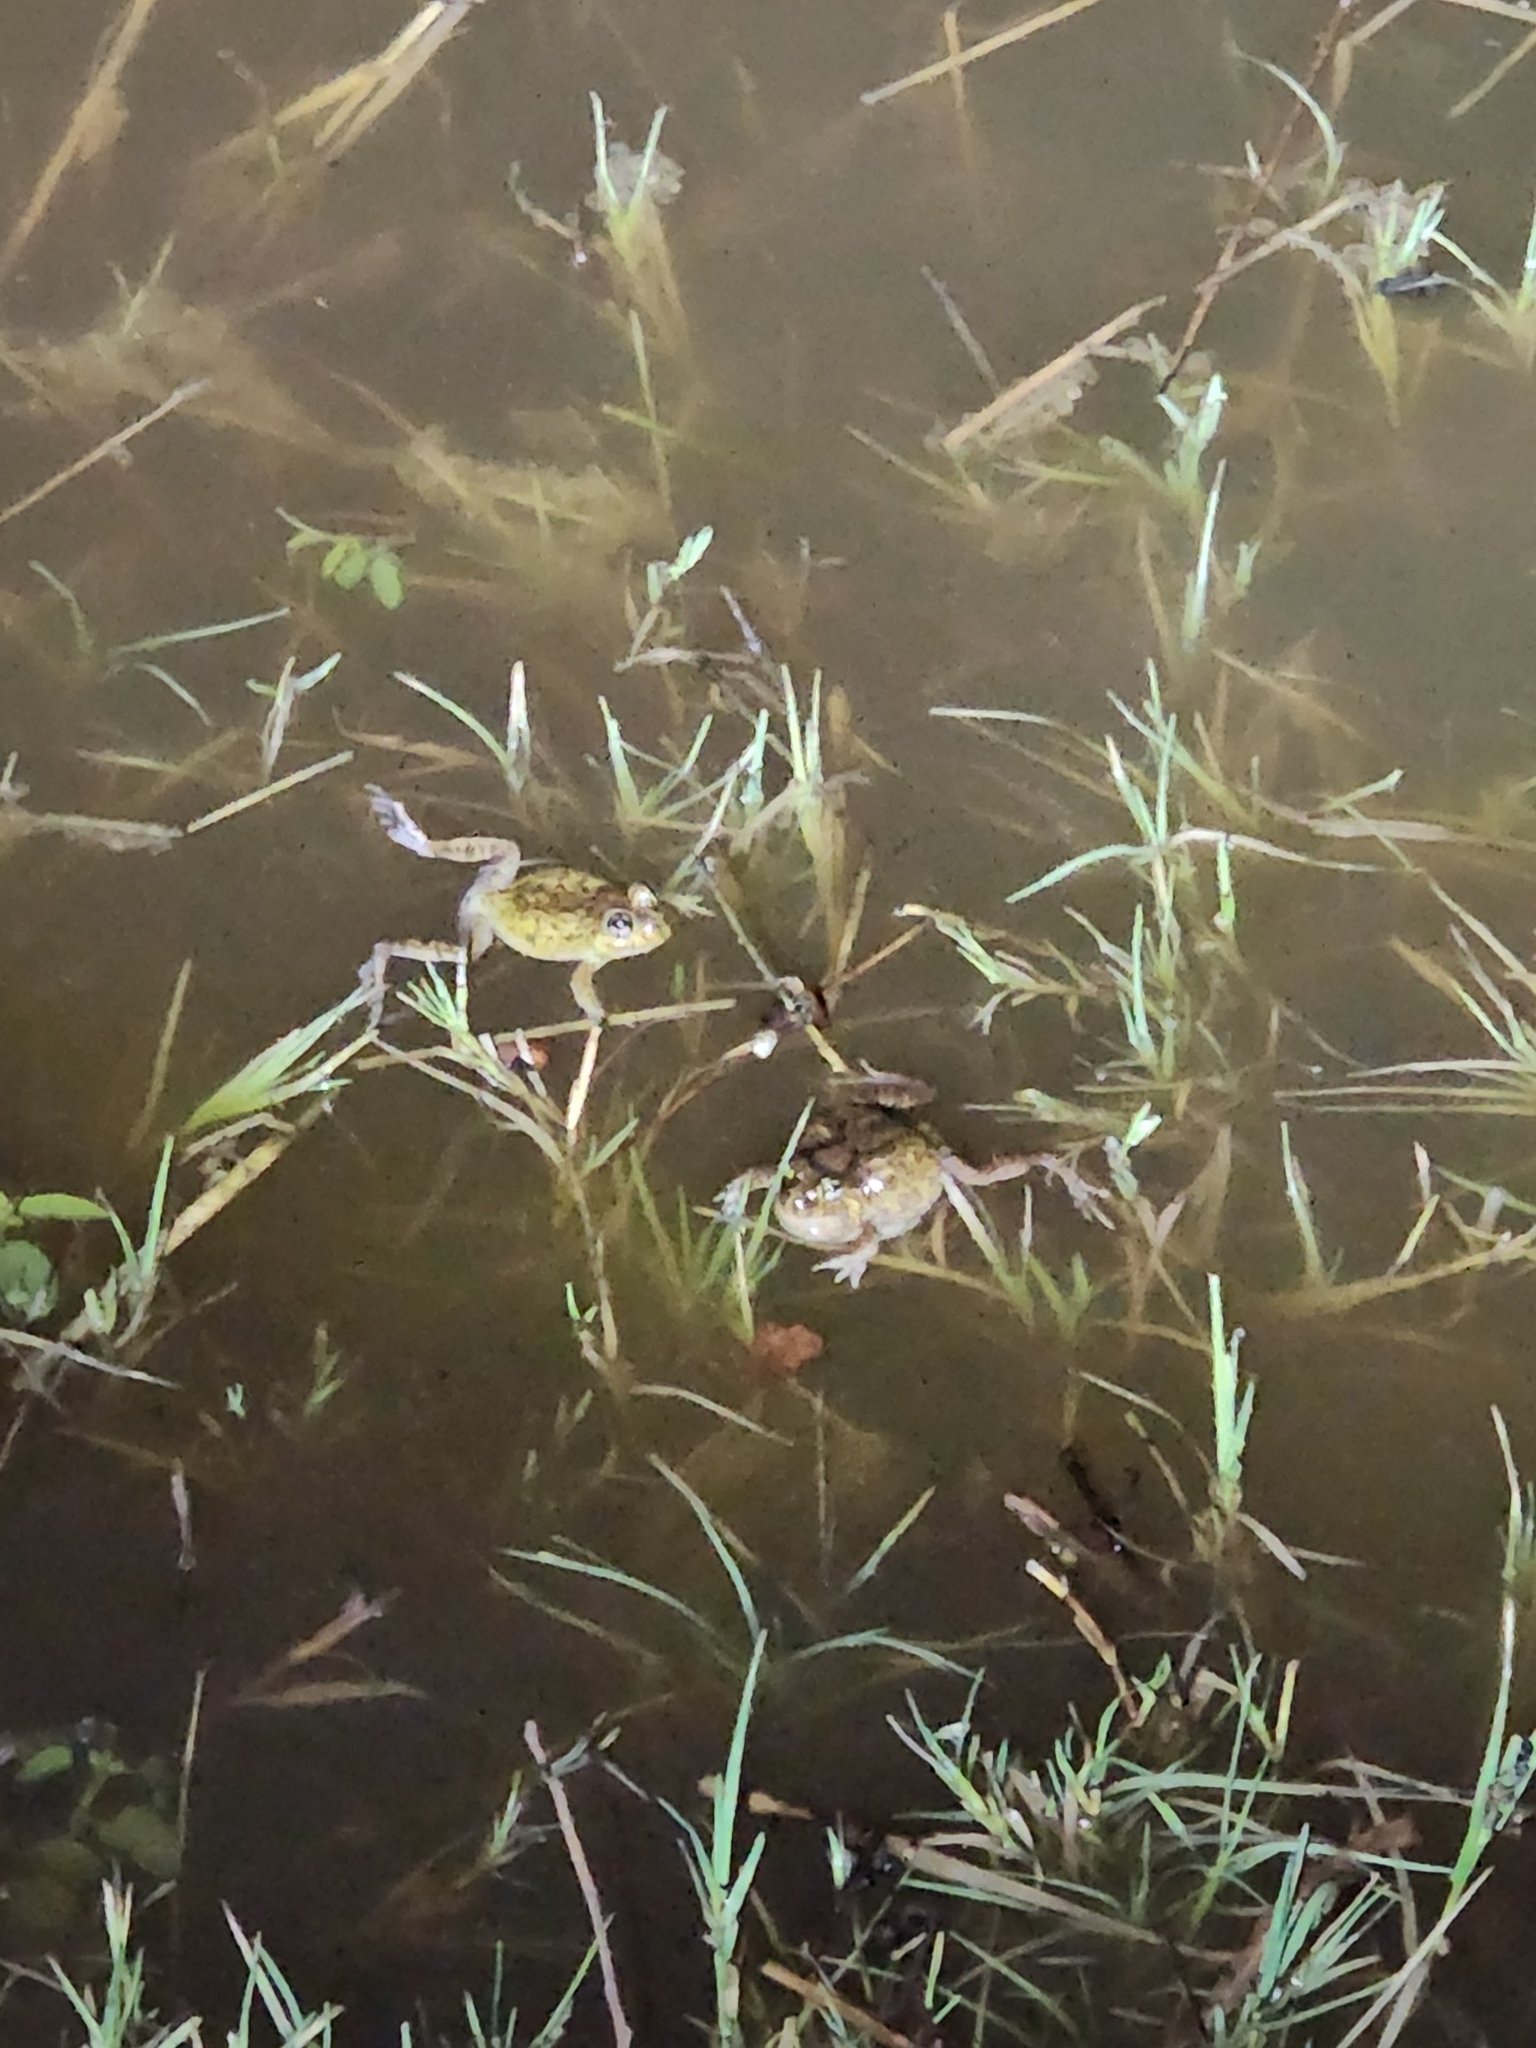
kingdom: Animalia
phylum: Chordata
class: Amphibia
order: Anura
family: Limnodynastidae
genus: Platyplectrum
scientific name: Platyplectrum ornatum
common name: Ornate burrowing frog
